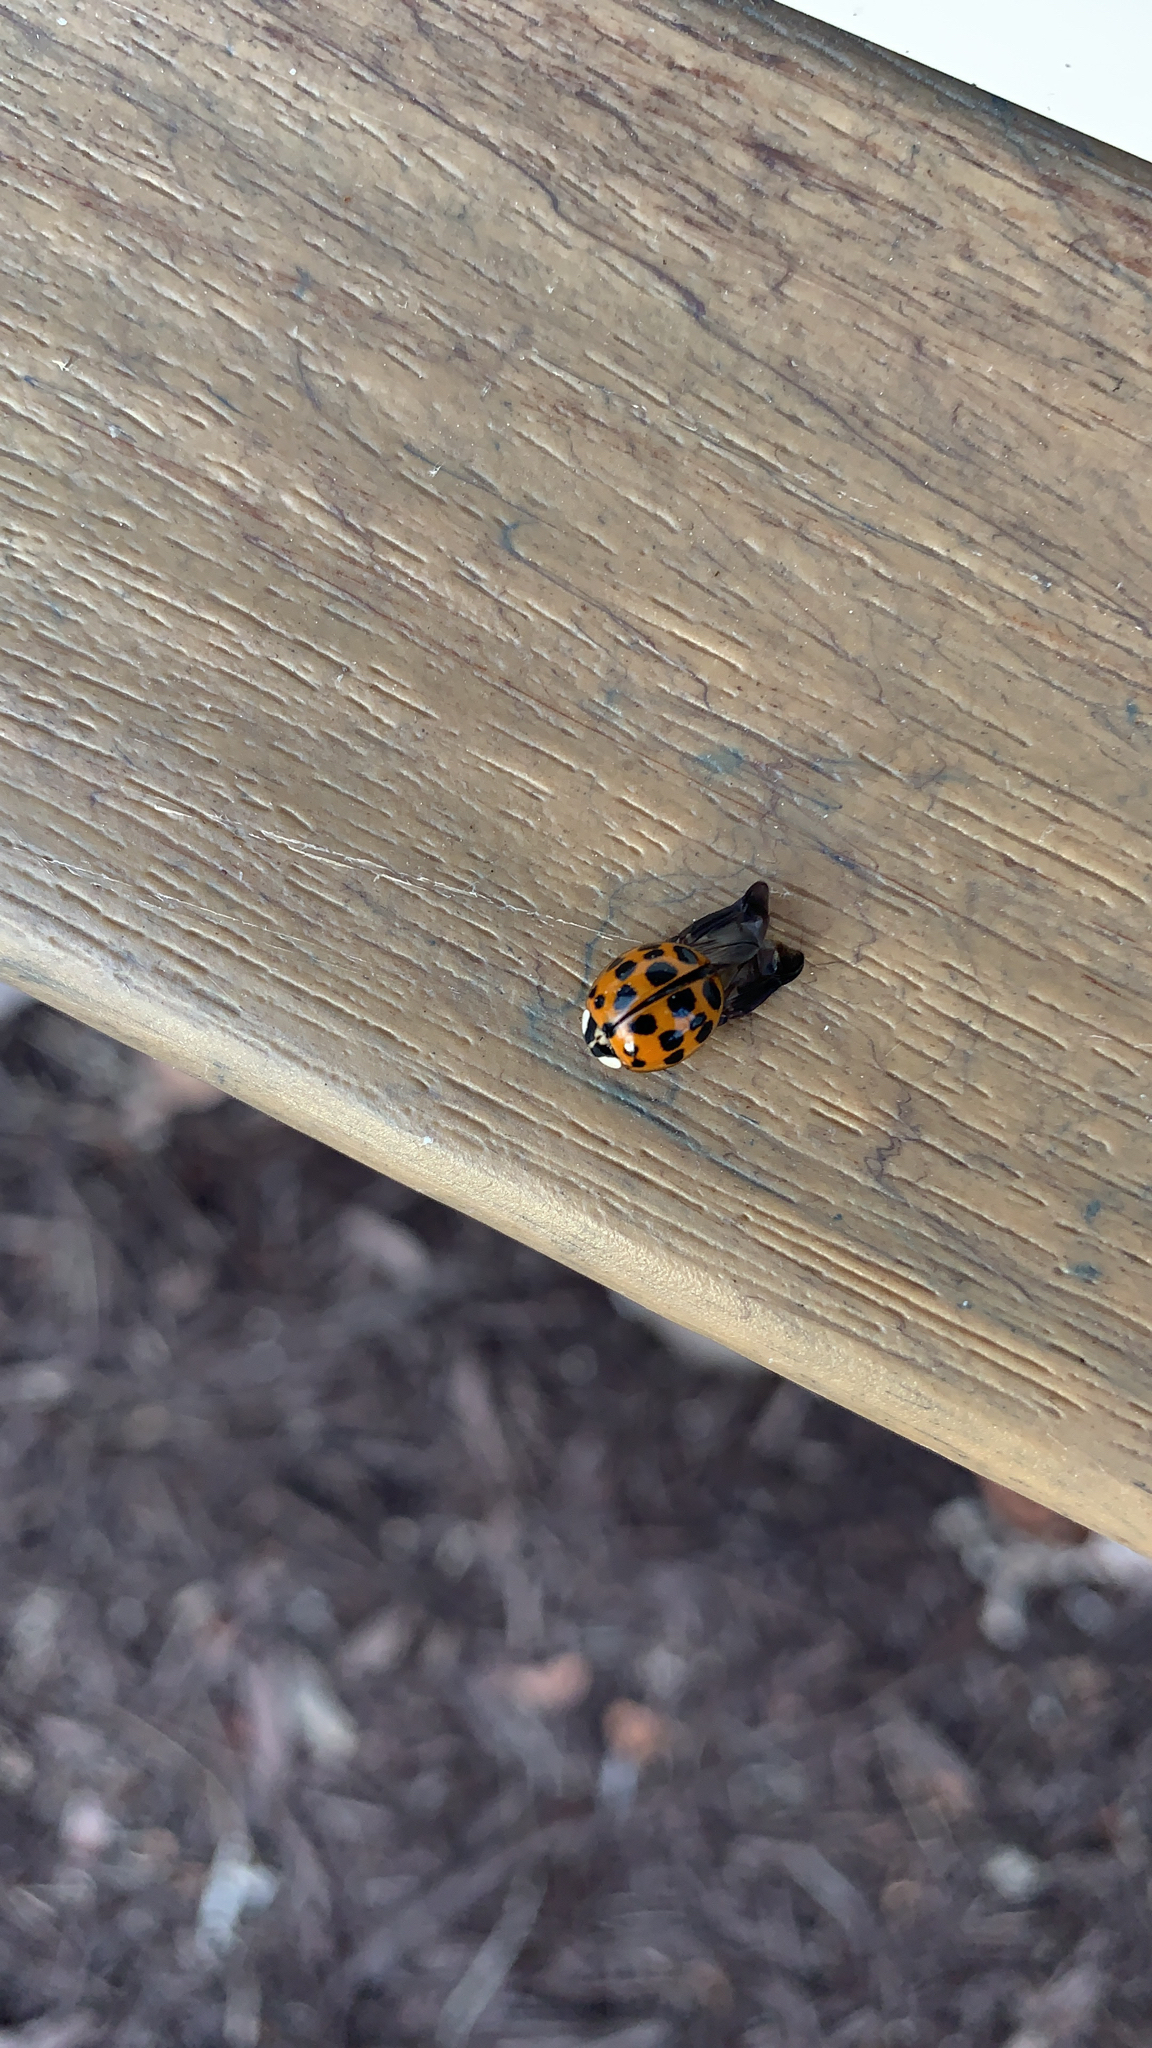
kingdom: Animalia
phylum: Arthropoda
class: Insecta
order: Coleoptera
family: Coccinellidae
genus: Harmonia
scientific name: Harmonia axyridis
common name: Harlequin ladybird
